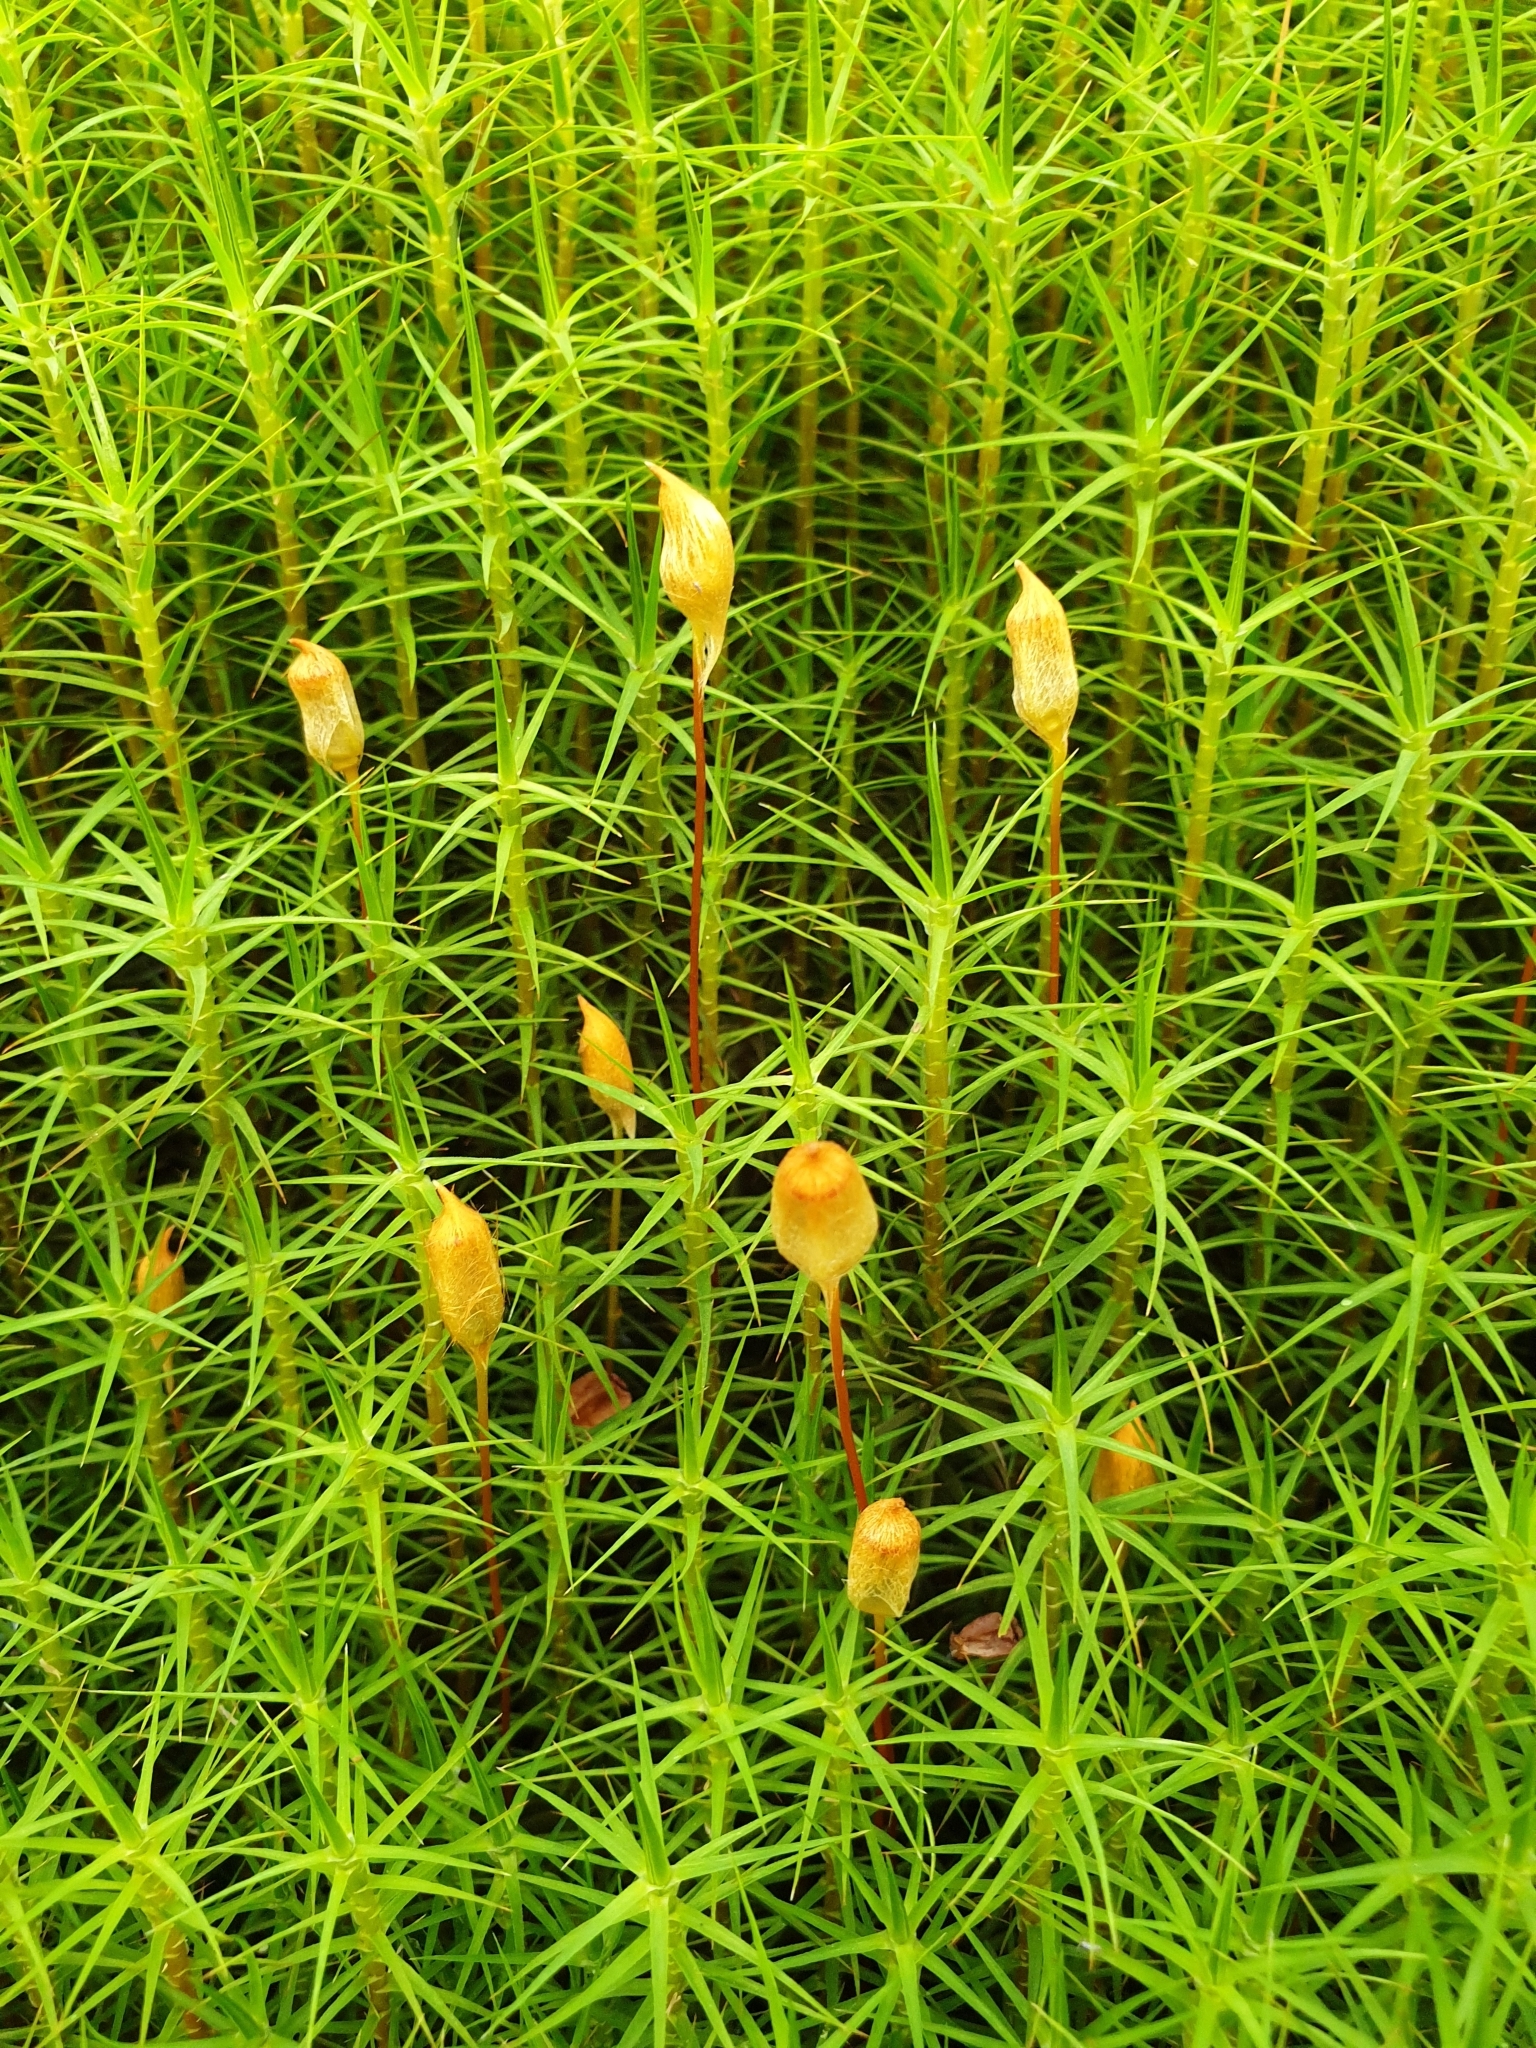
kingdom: Plantae
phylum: Bryophyta
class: Polytrichopsida
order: Polytrichales
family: Polytrichaceae
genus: Polytrichum
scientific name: Polytrichum commune
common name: Common haircap
